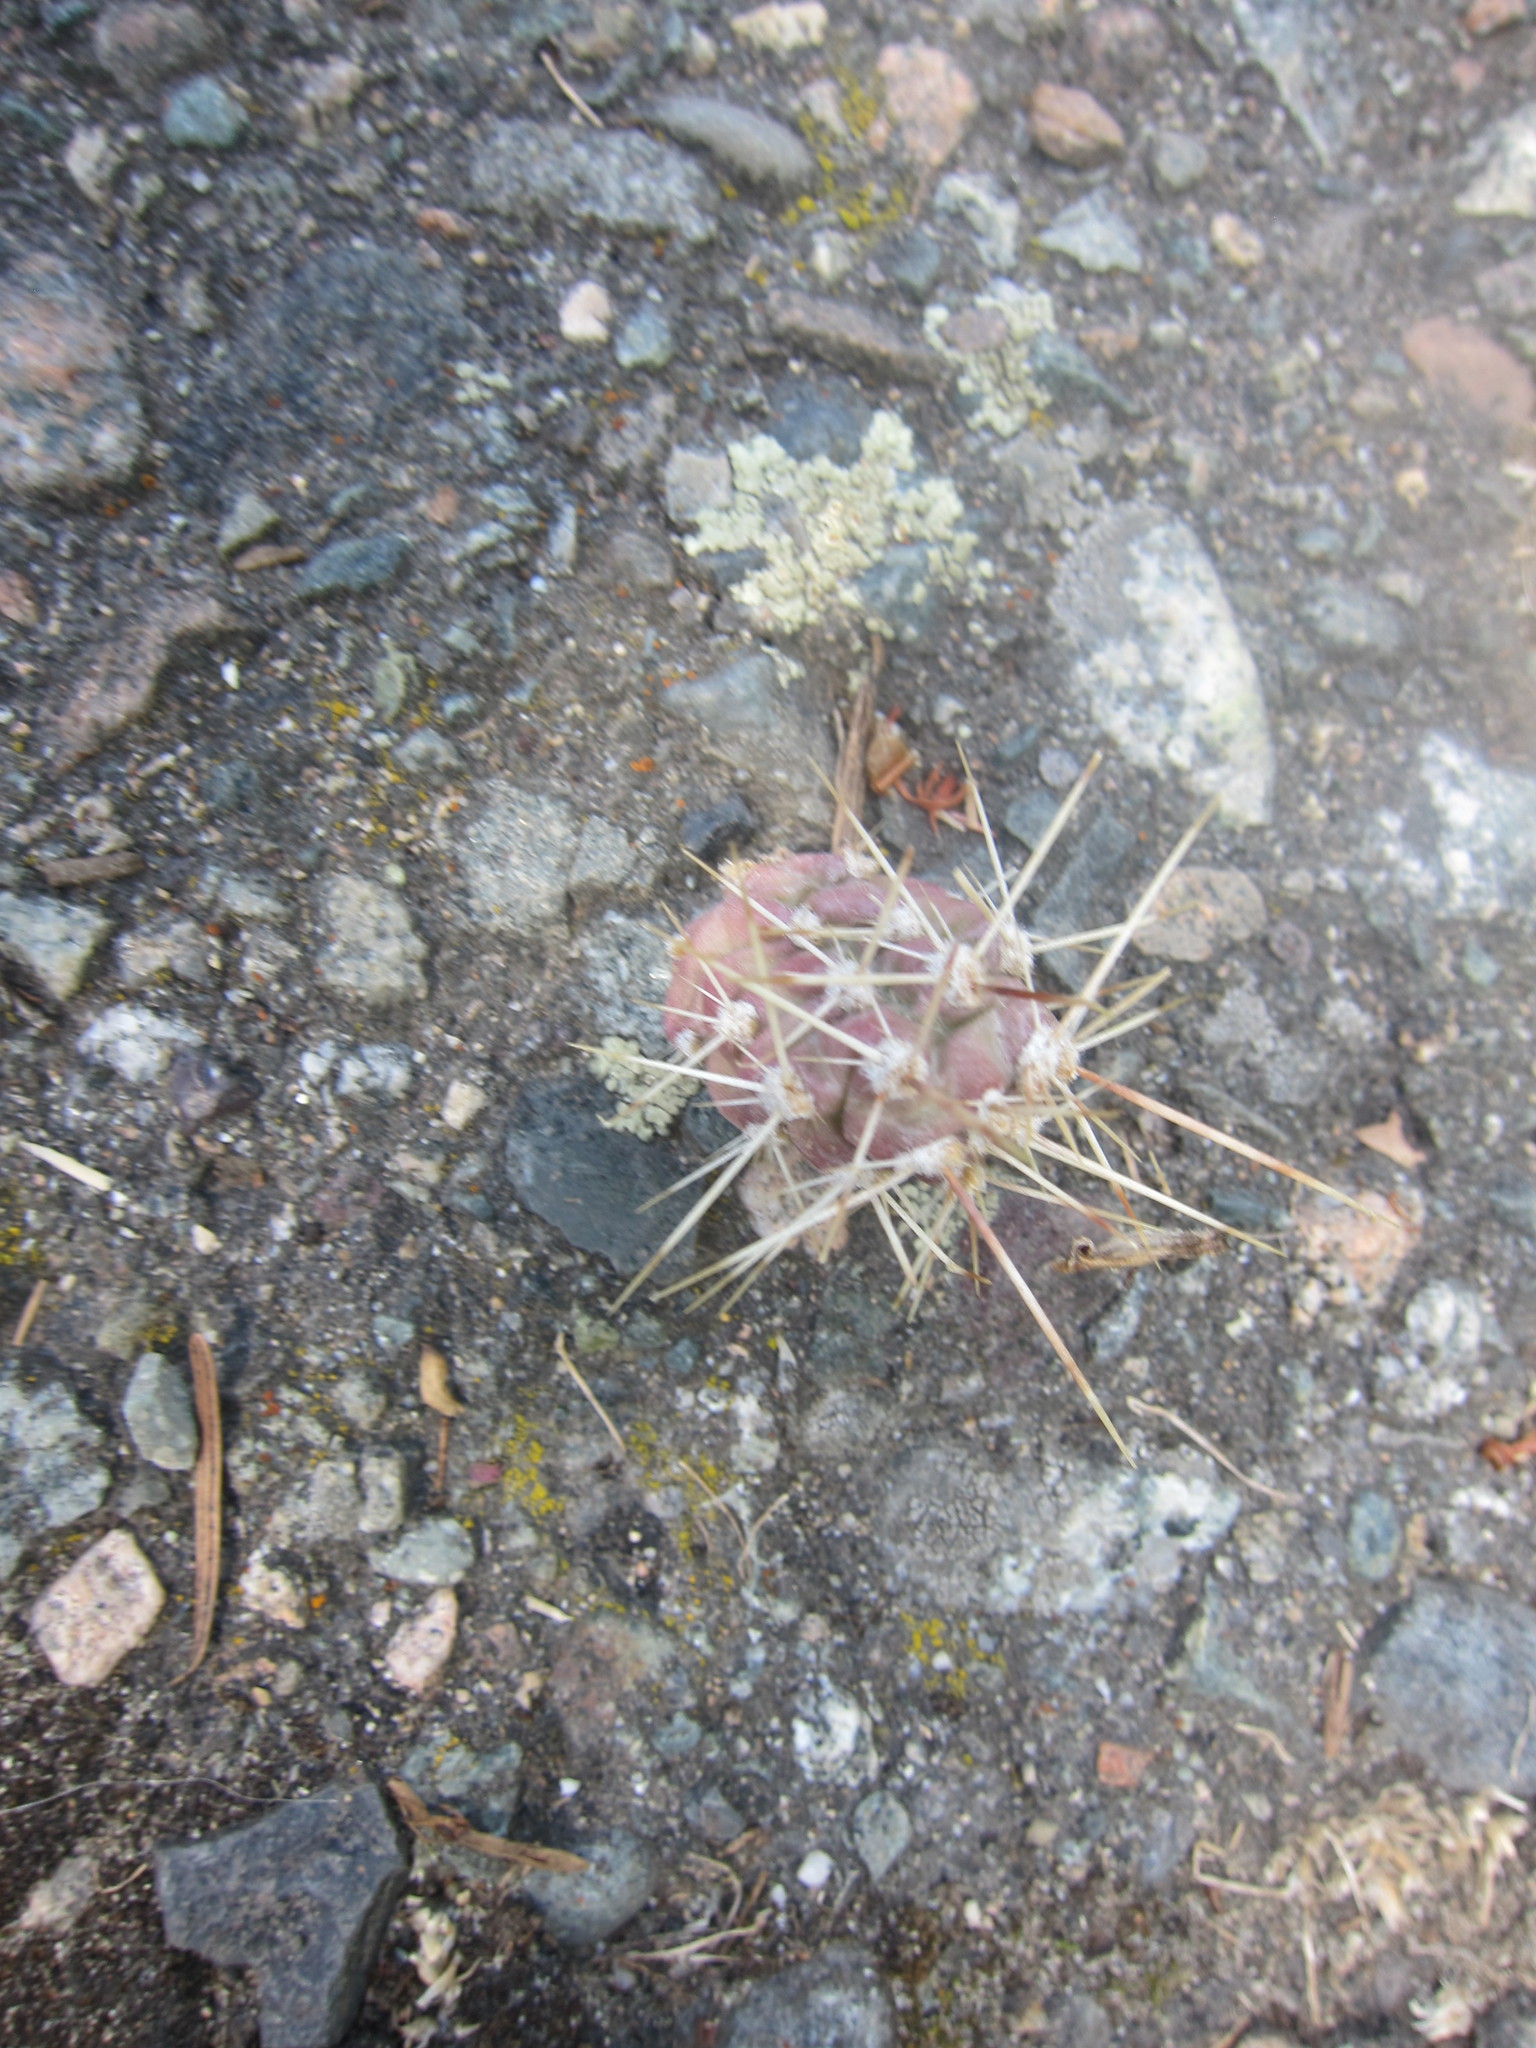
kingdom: Plantae
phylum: Tracheophyta
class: Magnoliopsida
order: Caryophyllales
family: Cactaceae
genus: Opuntia
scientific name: Opuntia fragilis
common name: Brittle cactus
